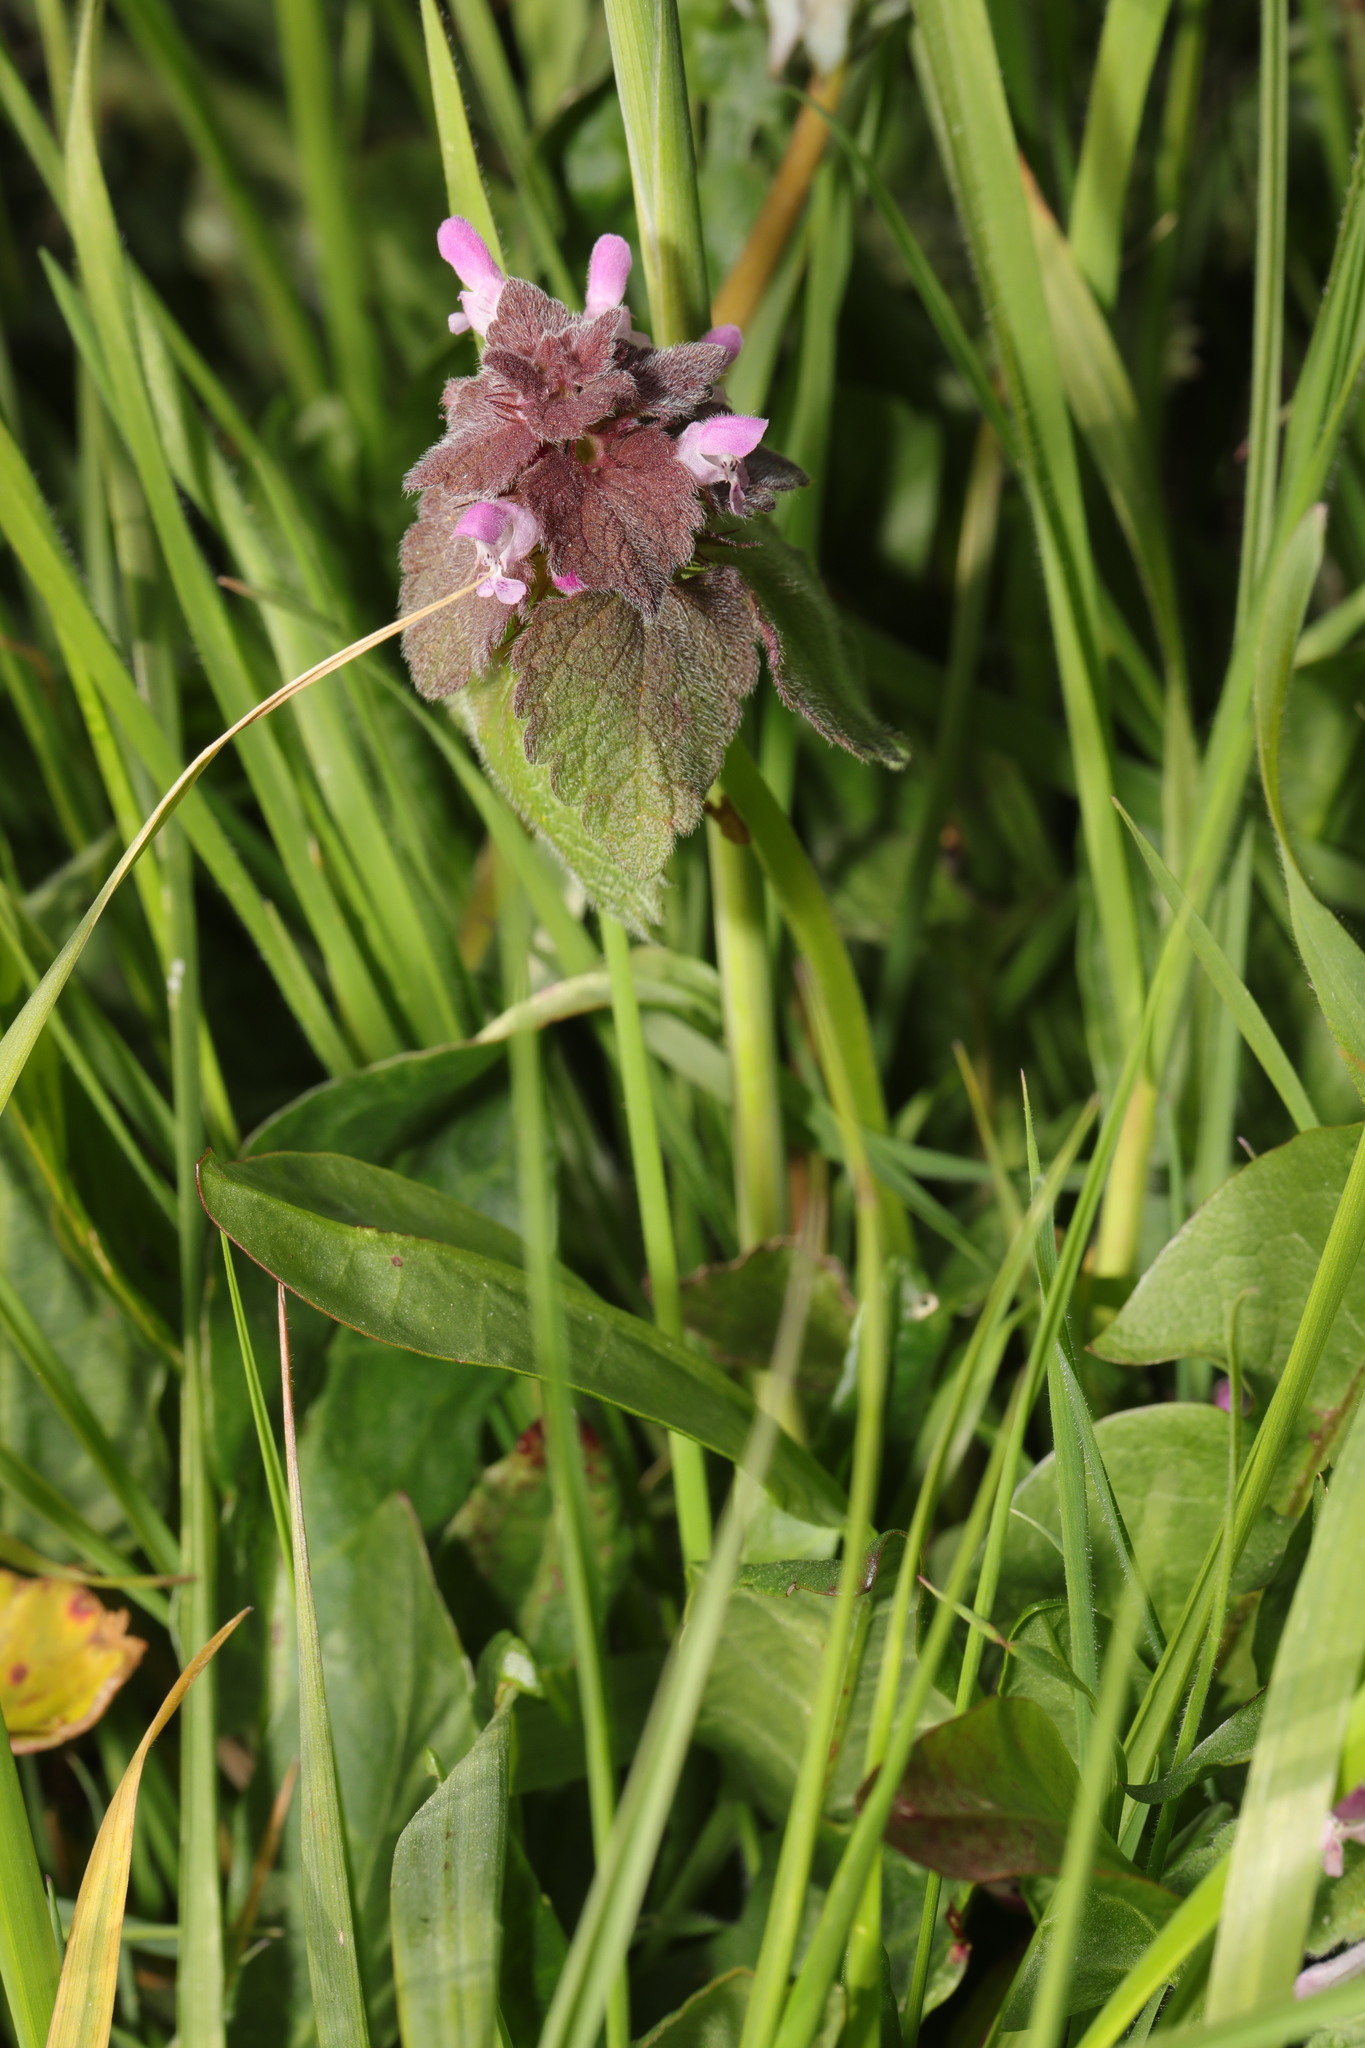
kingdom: Plantae
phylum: Tracheophyta
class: Magnoliopsida
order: Lamiales
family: Lamiaceae
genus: Lamium
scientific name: Lamium purpureum
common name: Red dead-nettle
